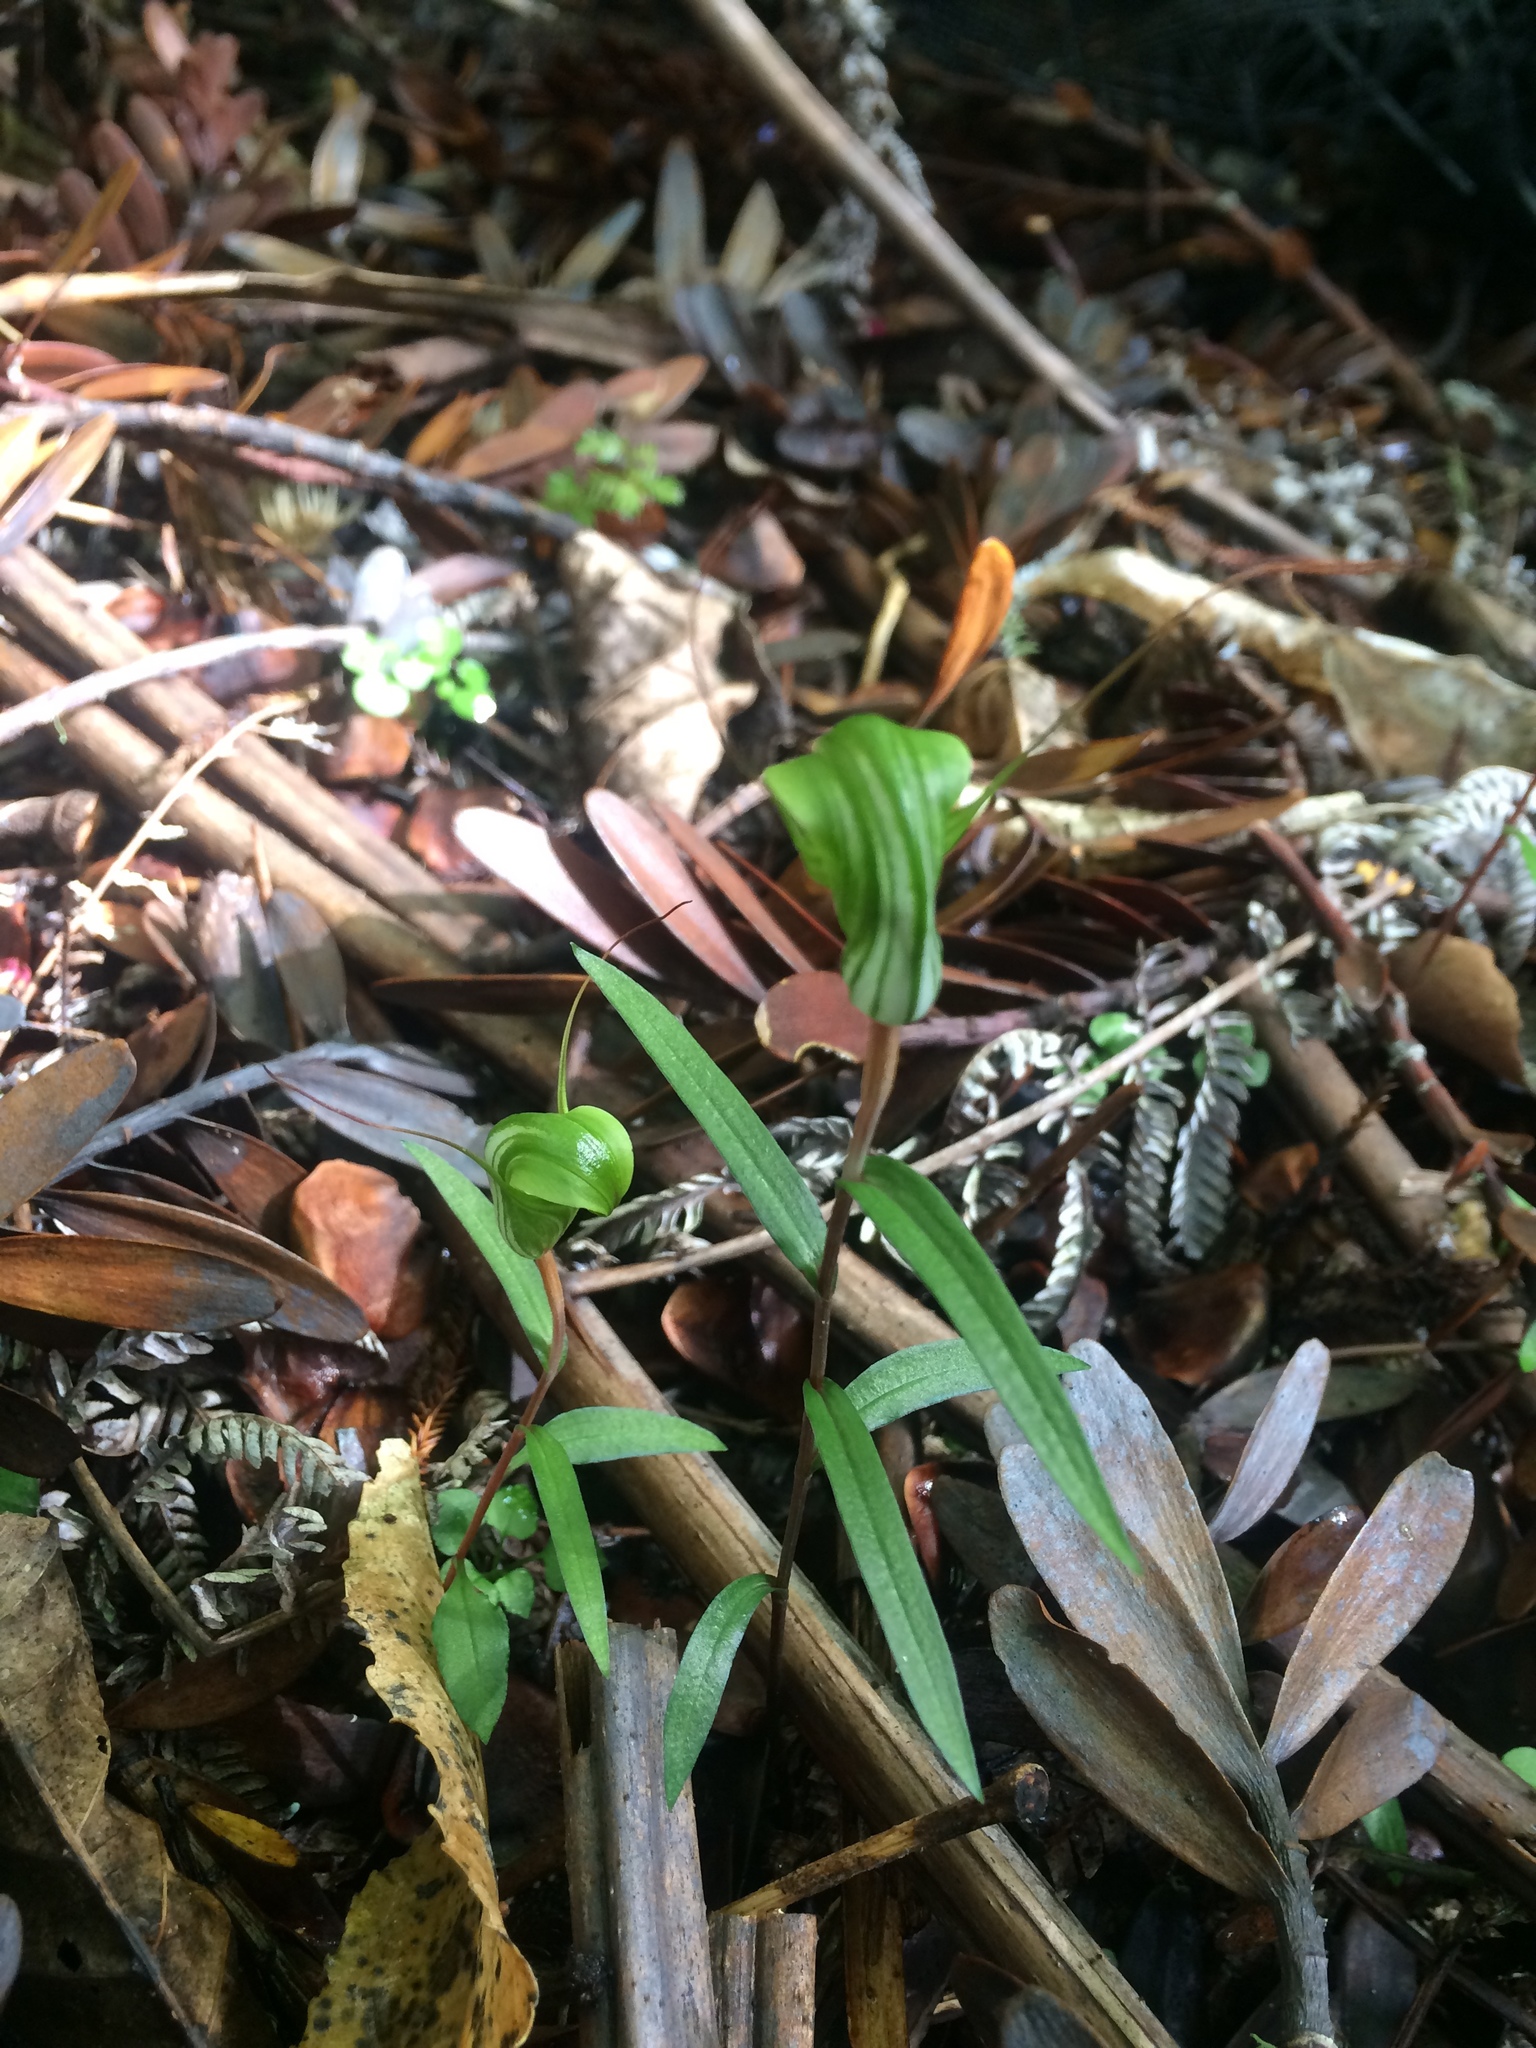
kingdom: Plantae
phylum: Tracheophyta
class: Liliopsida
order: Asparagales
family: Orchidaceae
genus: Pterostylis
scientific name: Pterostylis brumalis
